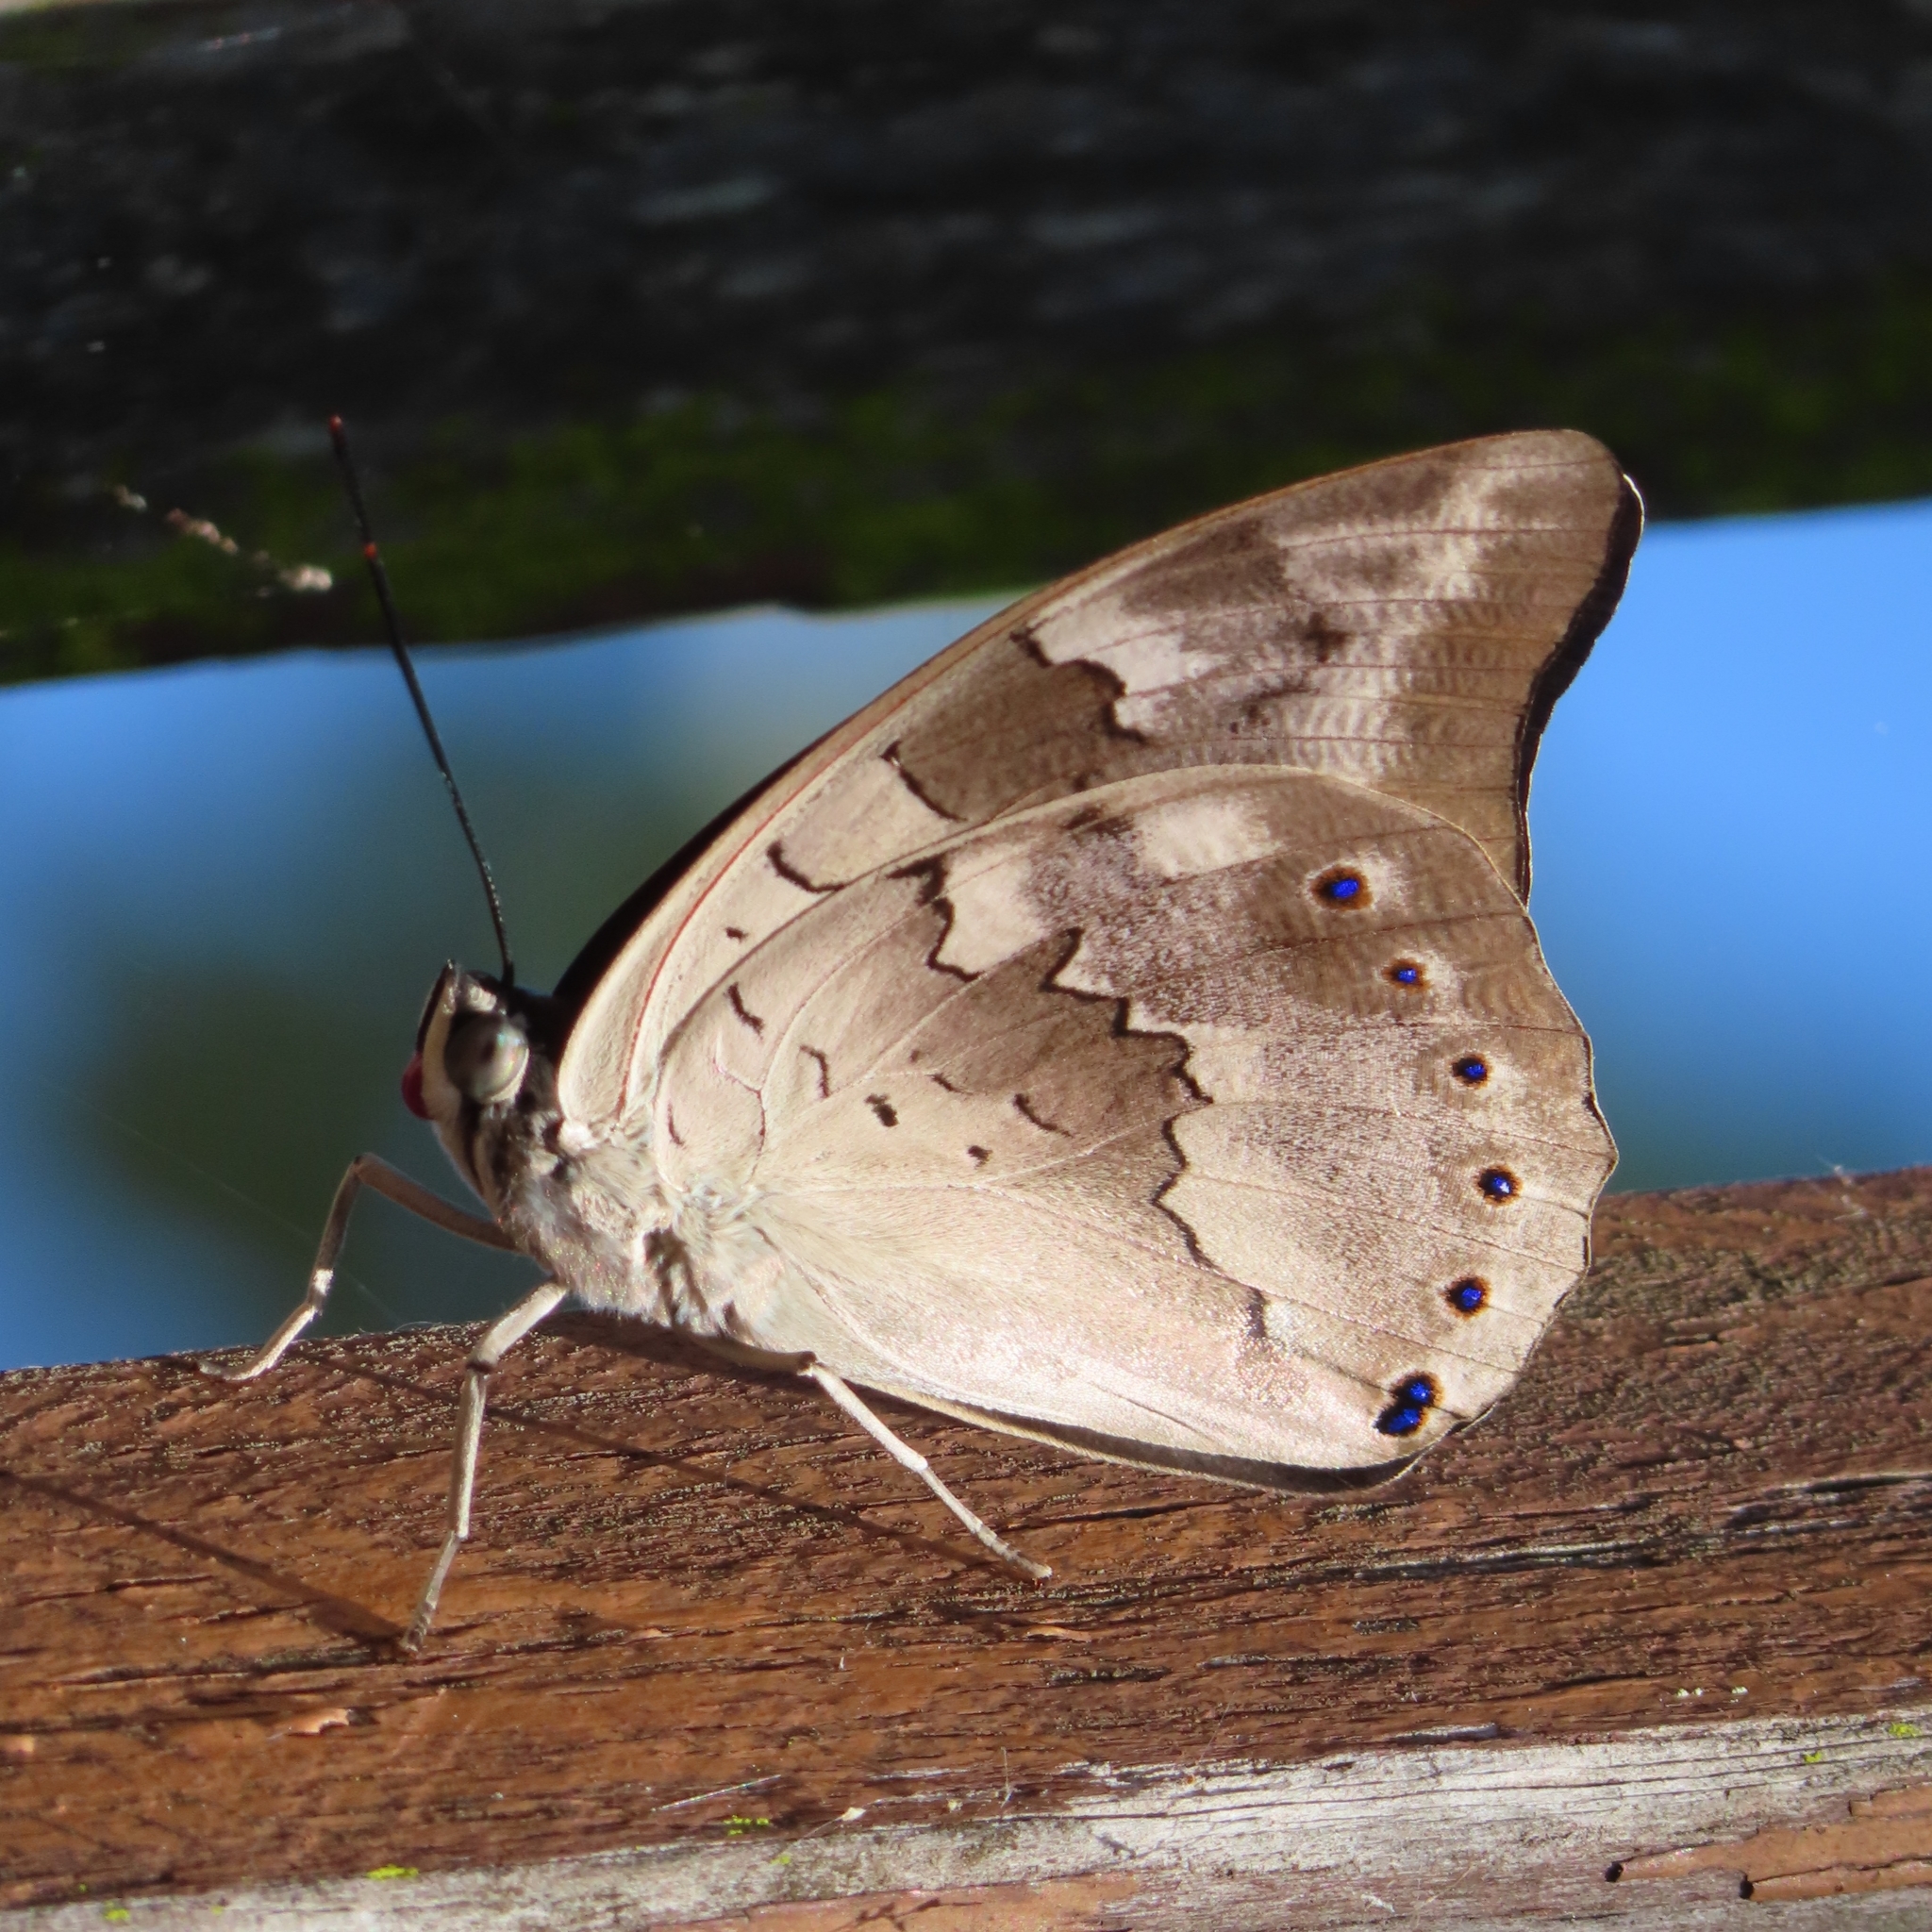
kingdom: Animalia
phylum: Arthropoda
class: Insecta
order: Lepidoptera
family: Nymphalidae
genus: Prepona
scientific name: Prepona demophoon
